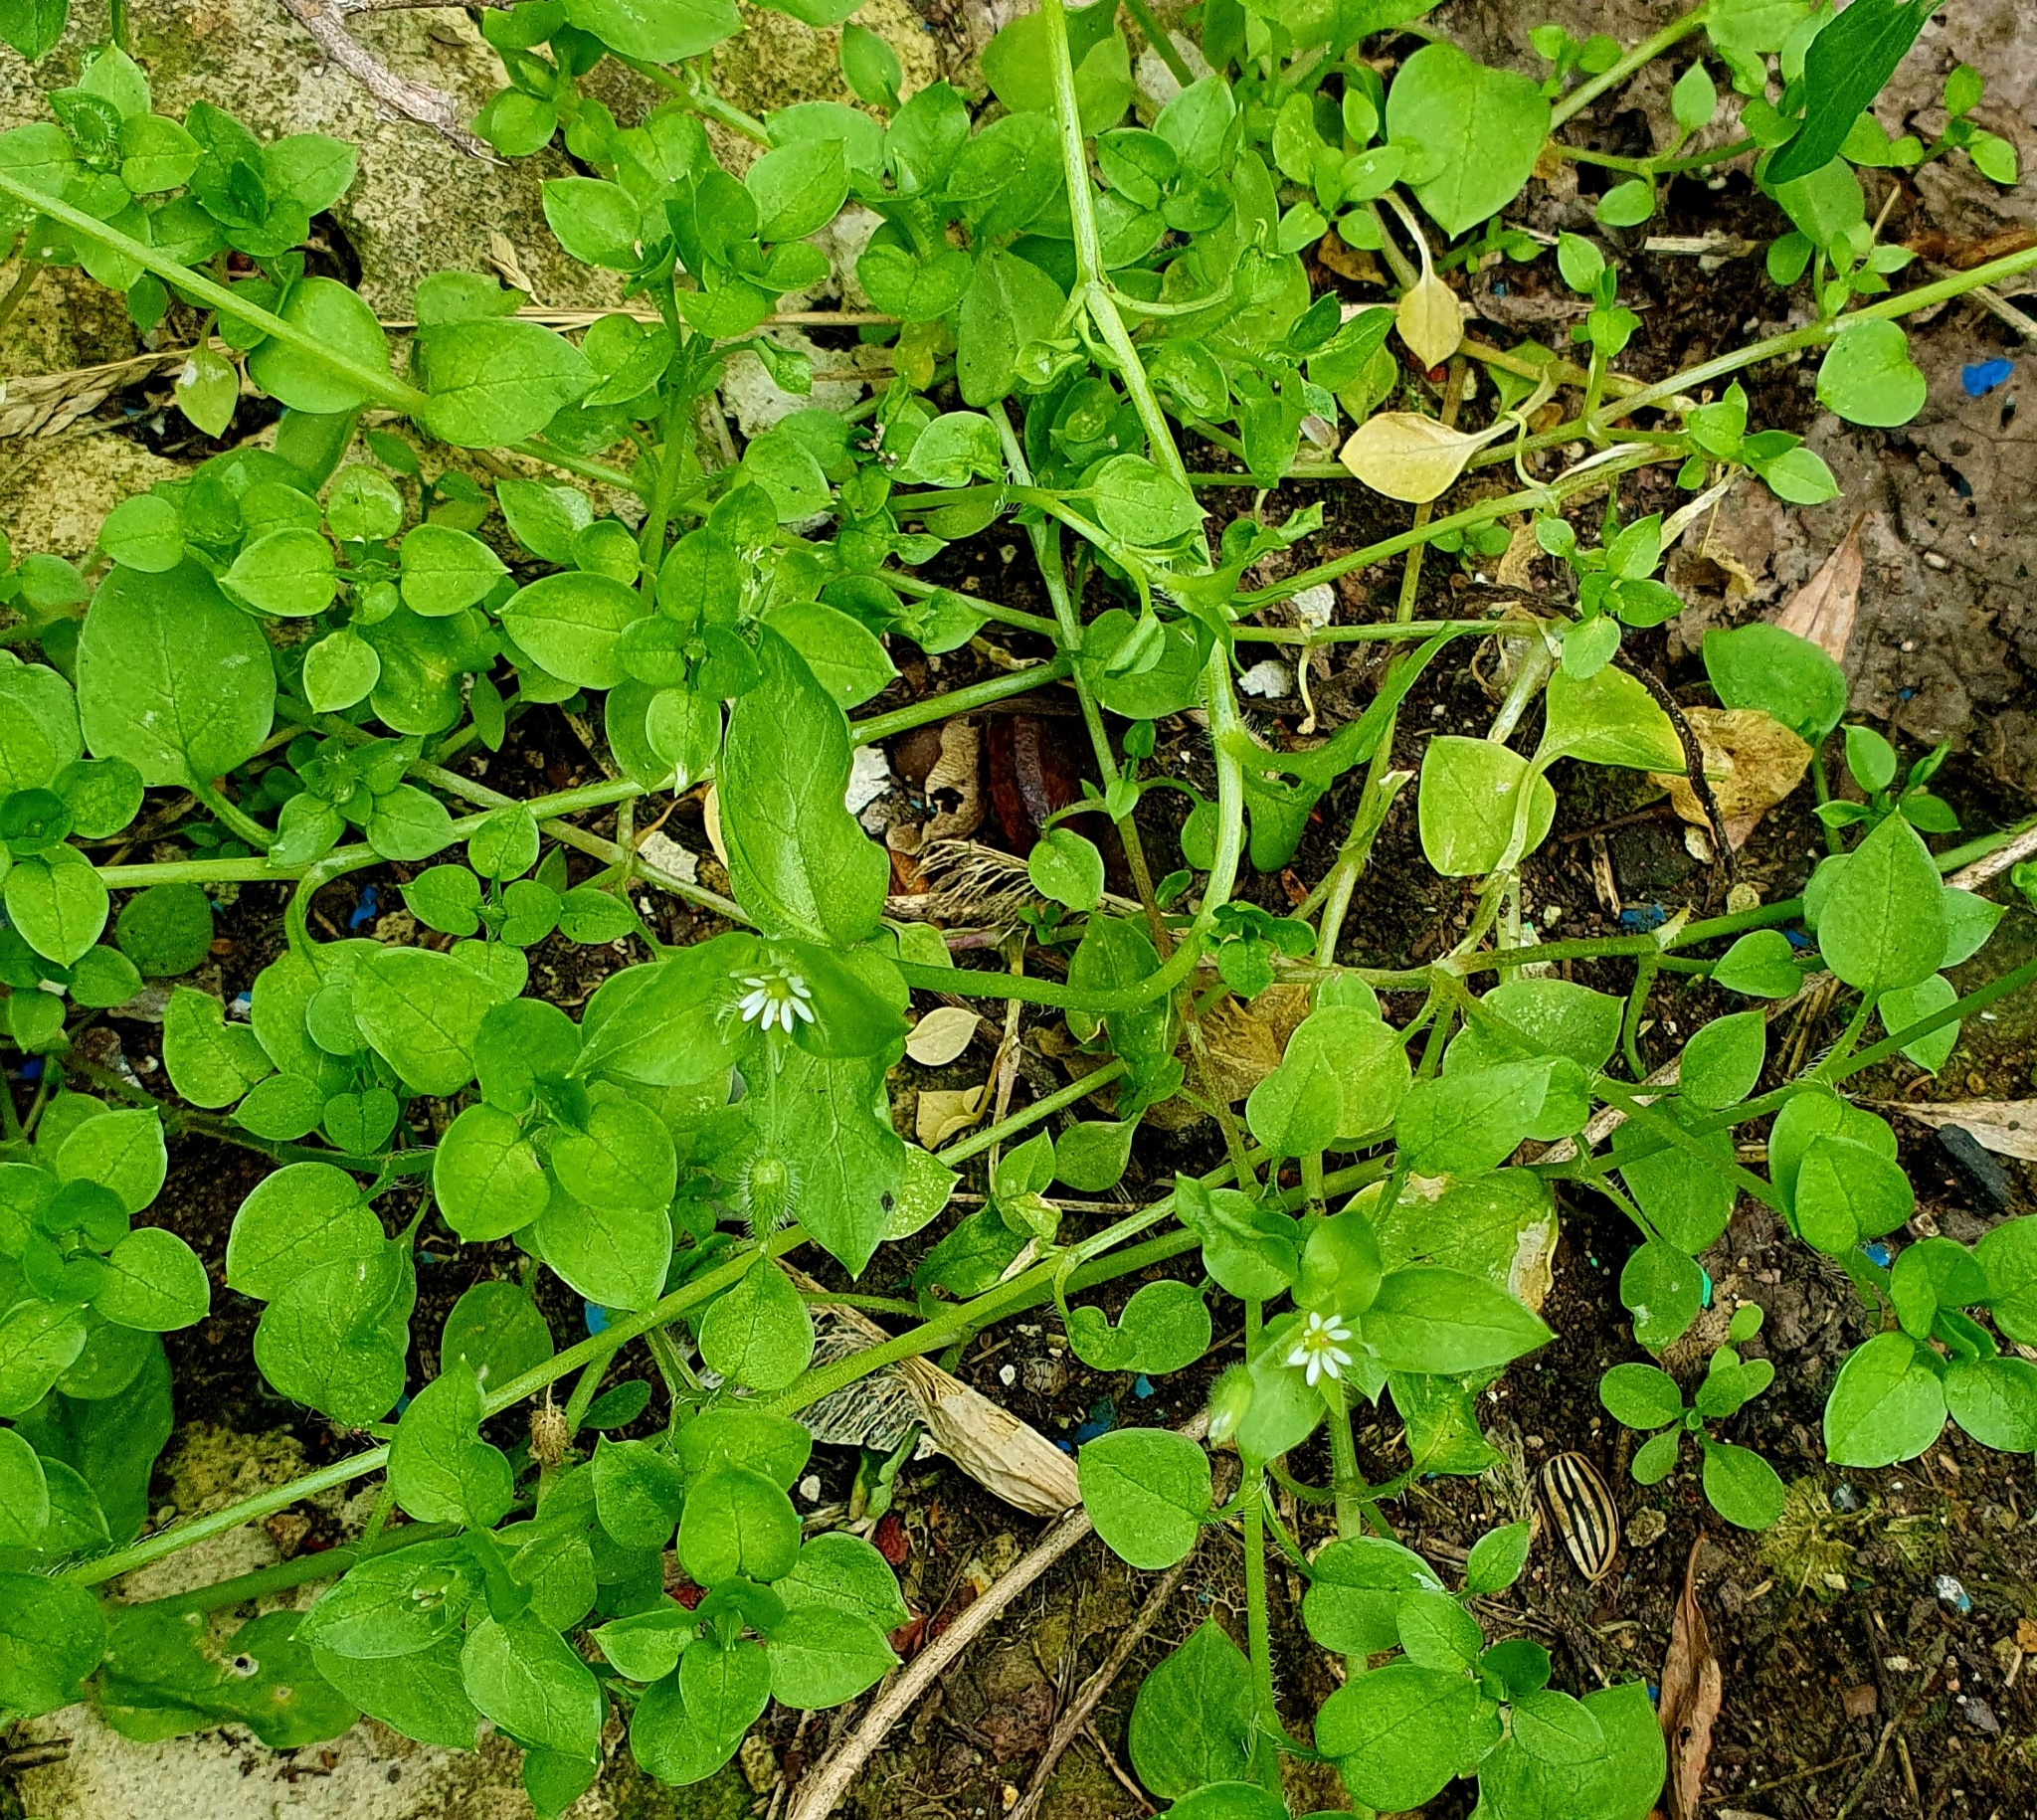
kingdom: Plantae
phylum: Tracheophyta
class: Magnoliopsida
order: Caryophyllales
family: Caryophyllaceae
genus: Stellaria
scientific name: Stellaria media
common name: Common chickweed
